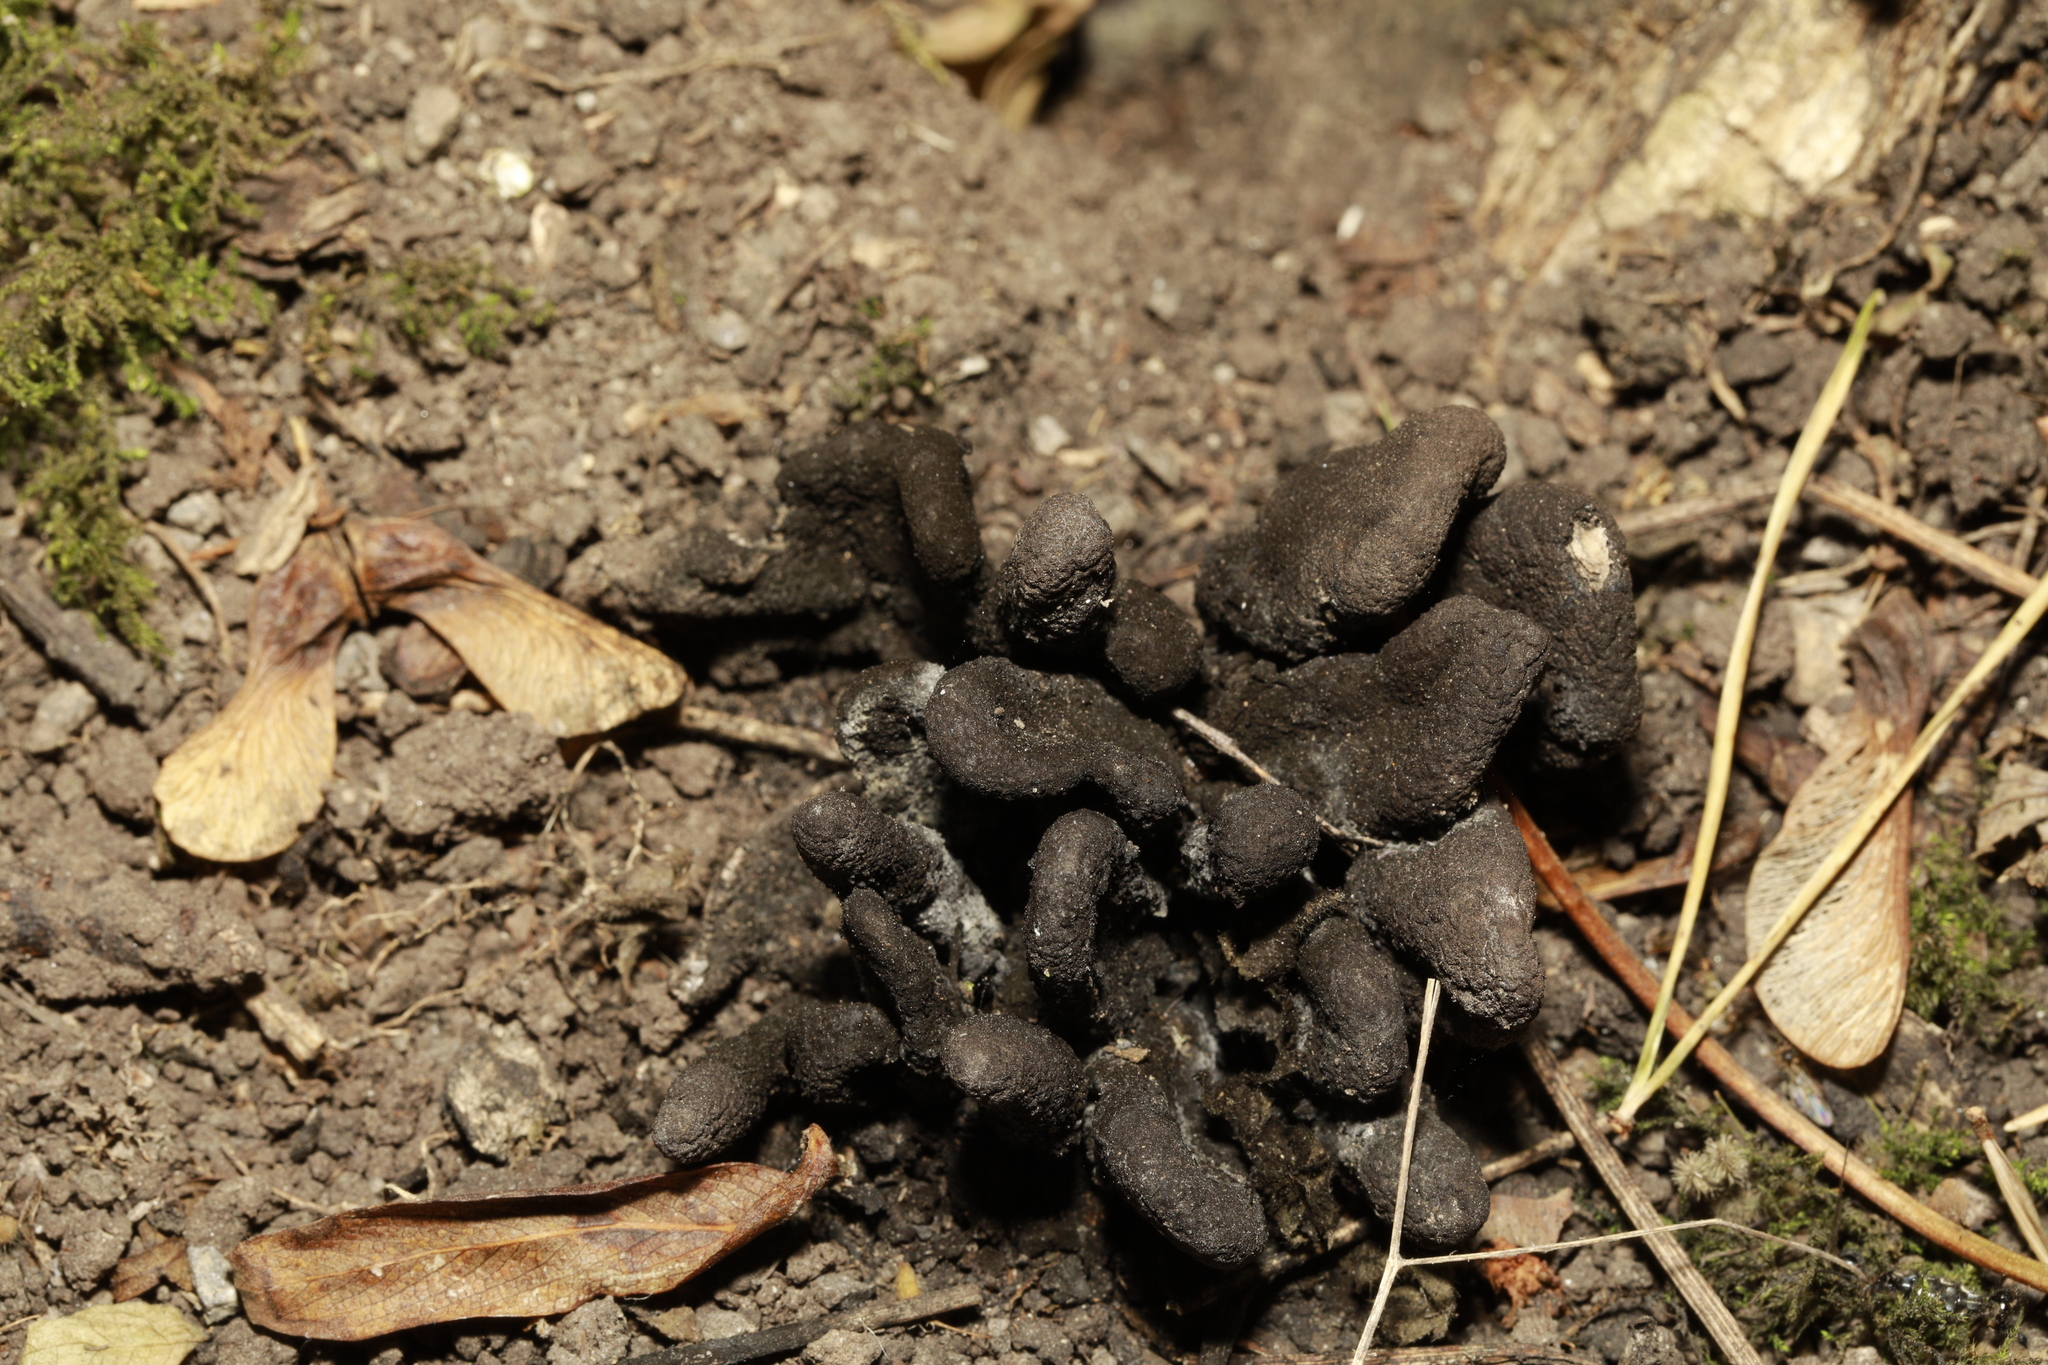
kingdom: Fungi
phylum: Ascomycota
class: Sordariomycetes
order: Xylariales
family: Xylariaceae
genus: Xylaria
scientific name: Xylaria polymorpha
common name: Dead man's fingers
